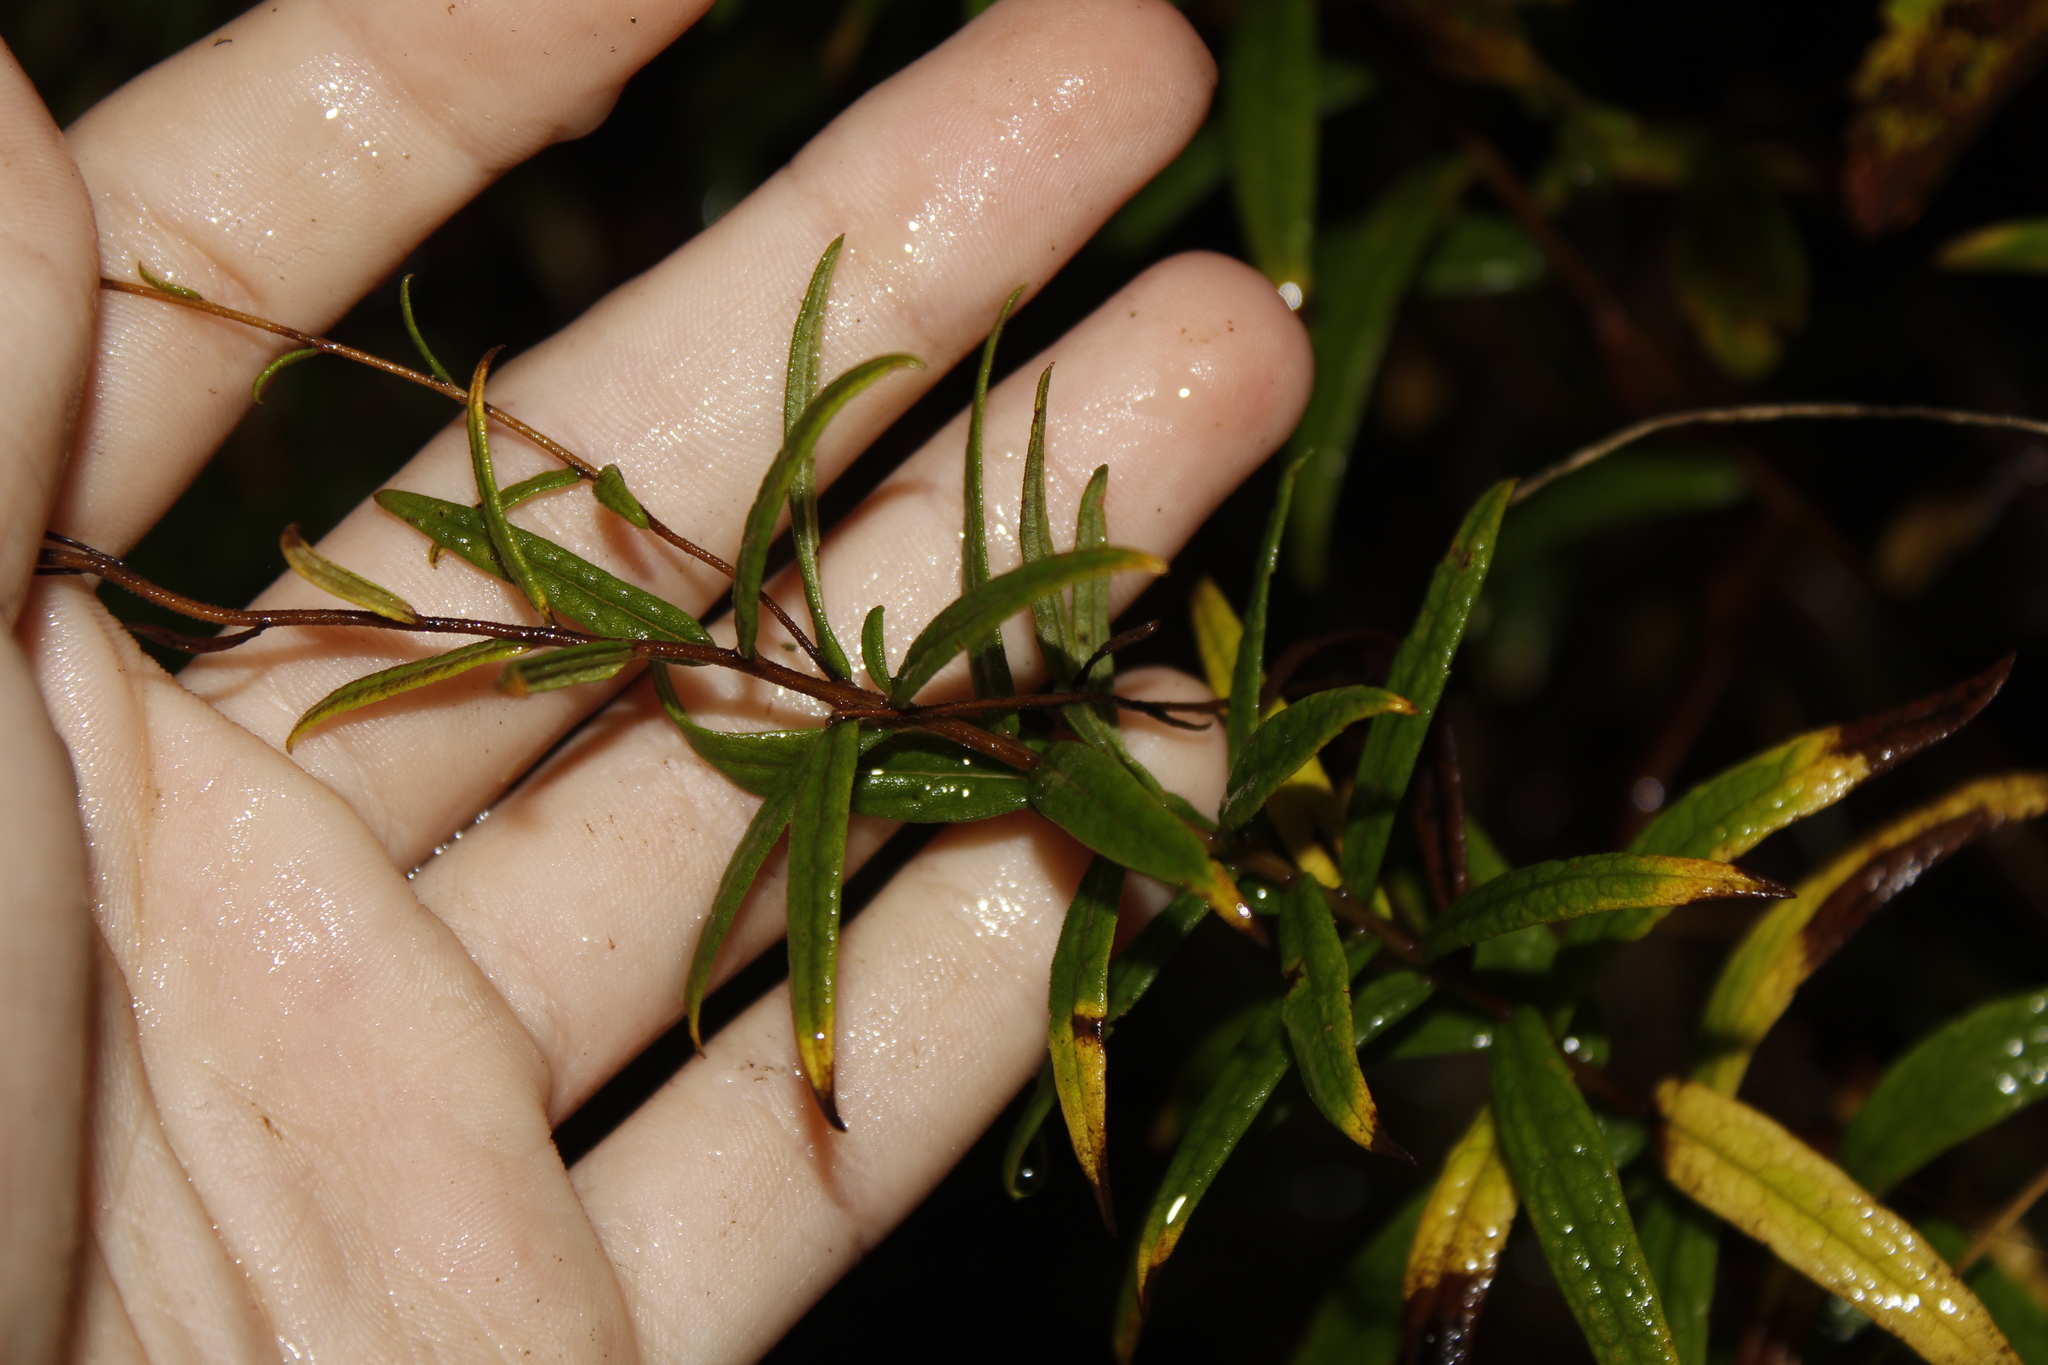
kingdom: Plantae
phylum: Tracheophyta
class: Magnoliopsida
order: Asterales
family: Asteraceae
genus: Oclemena
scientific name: Oclemena nemoralis
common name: Bog aster
